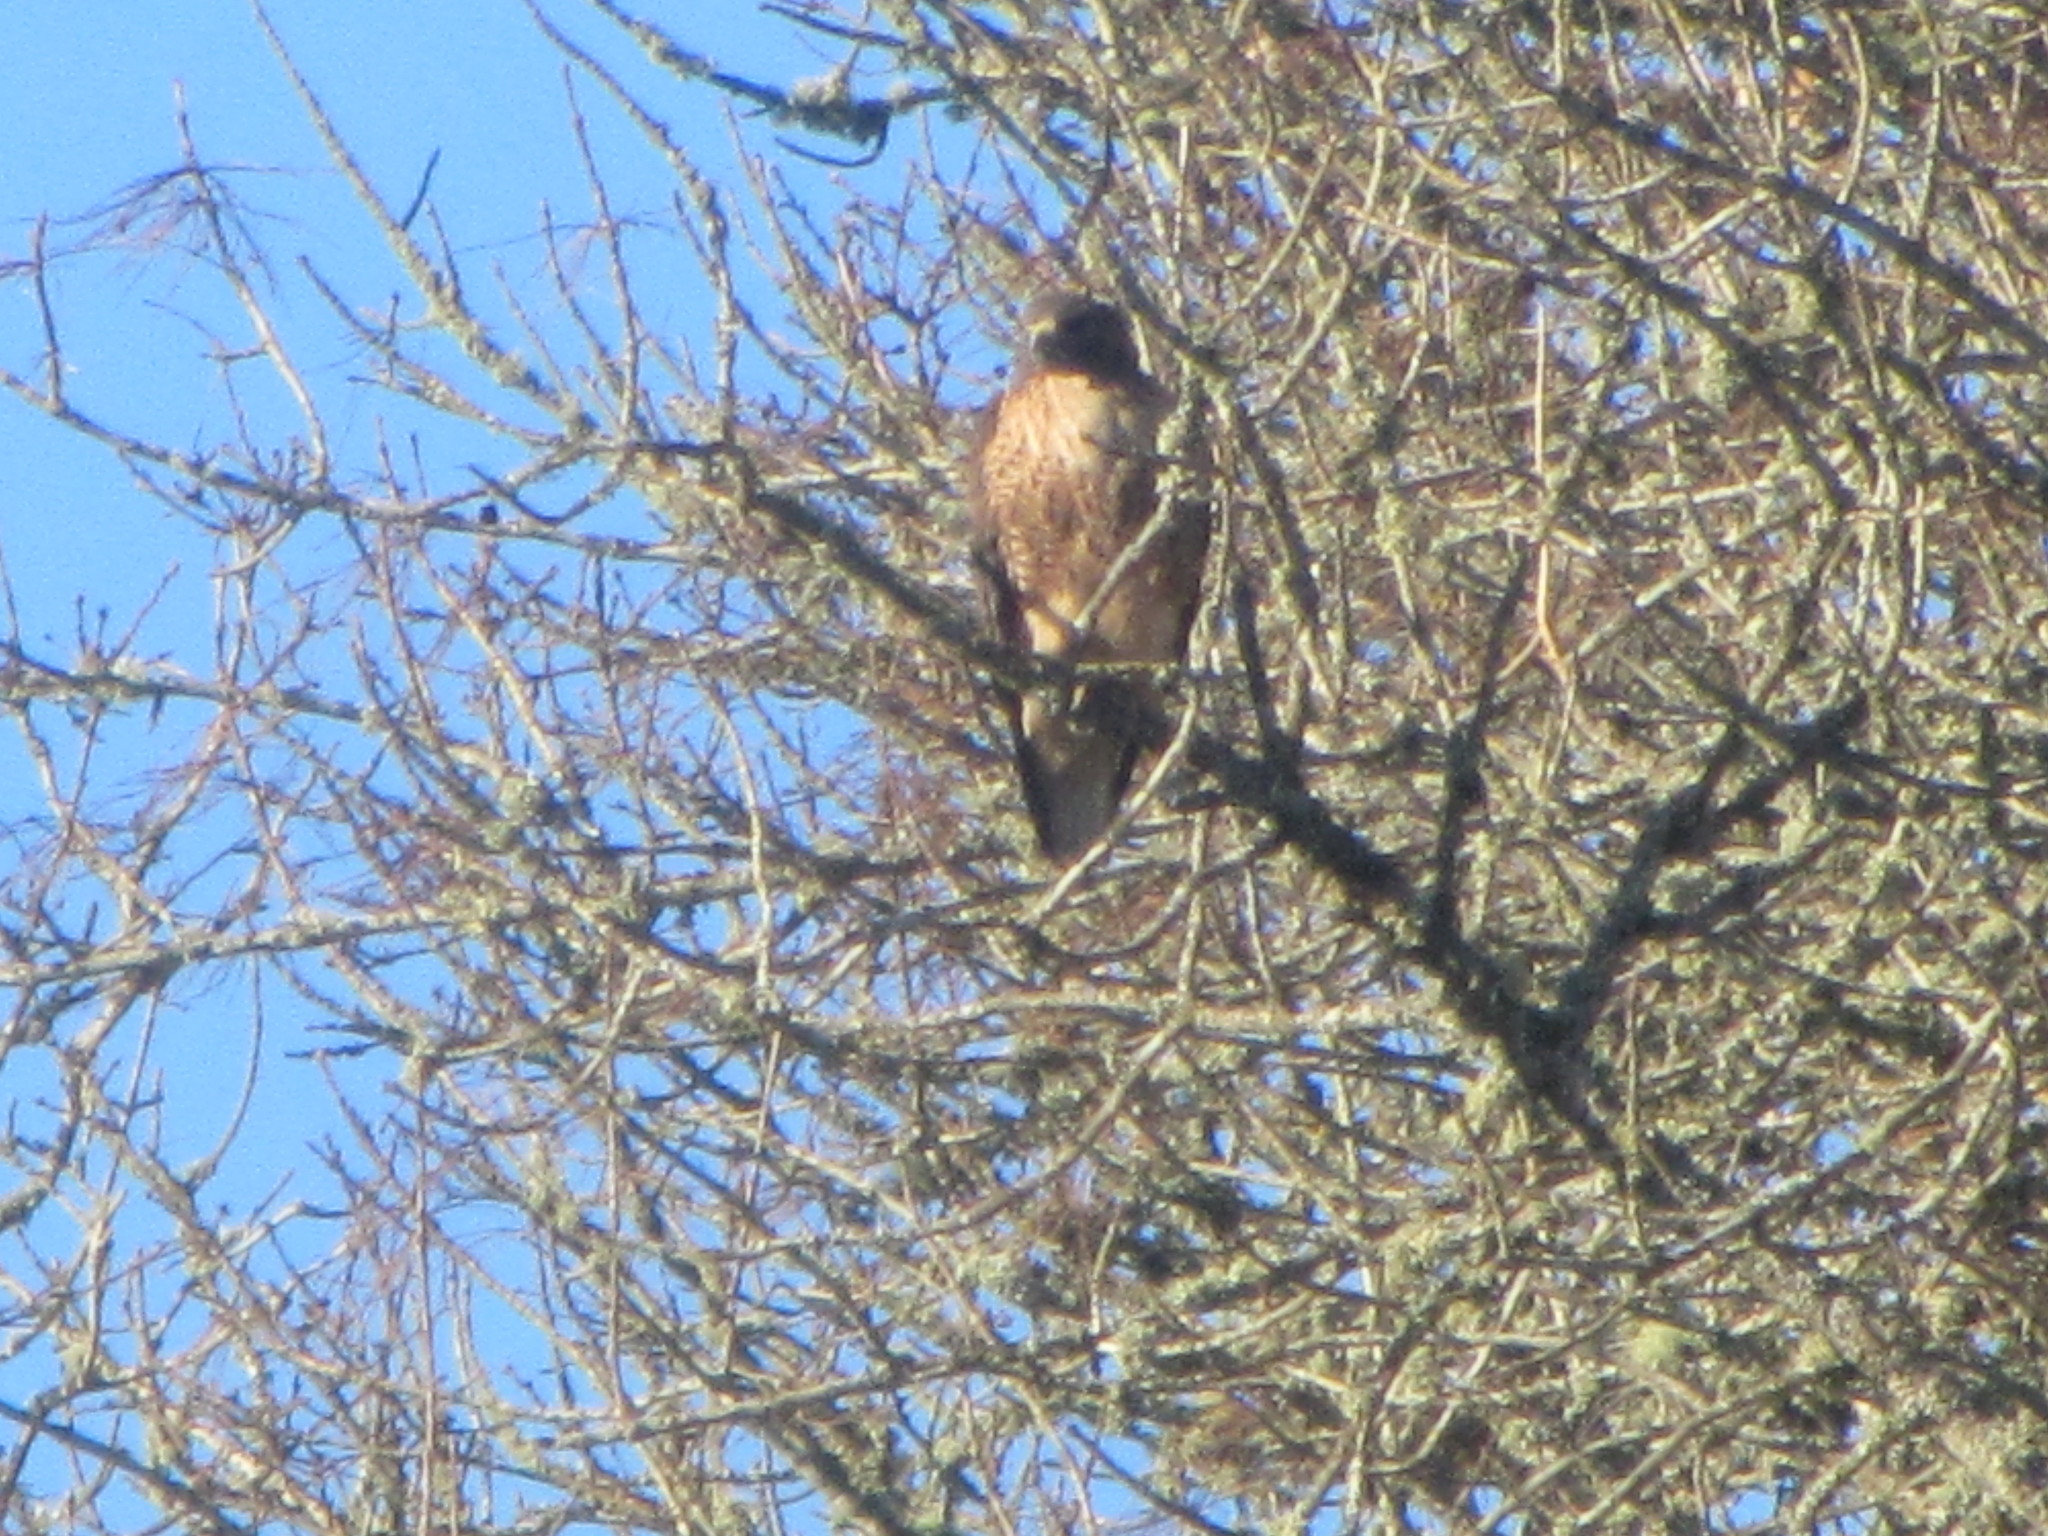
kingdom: Animalia
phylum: Chordata
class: Aves
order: Accipitriformes
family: Accipitridae
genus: Buteo
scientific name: Buteo jamaicensis
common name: Red-tailed hawk
